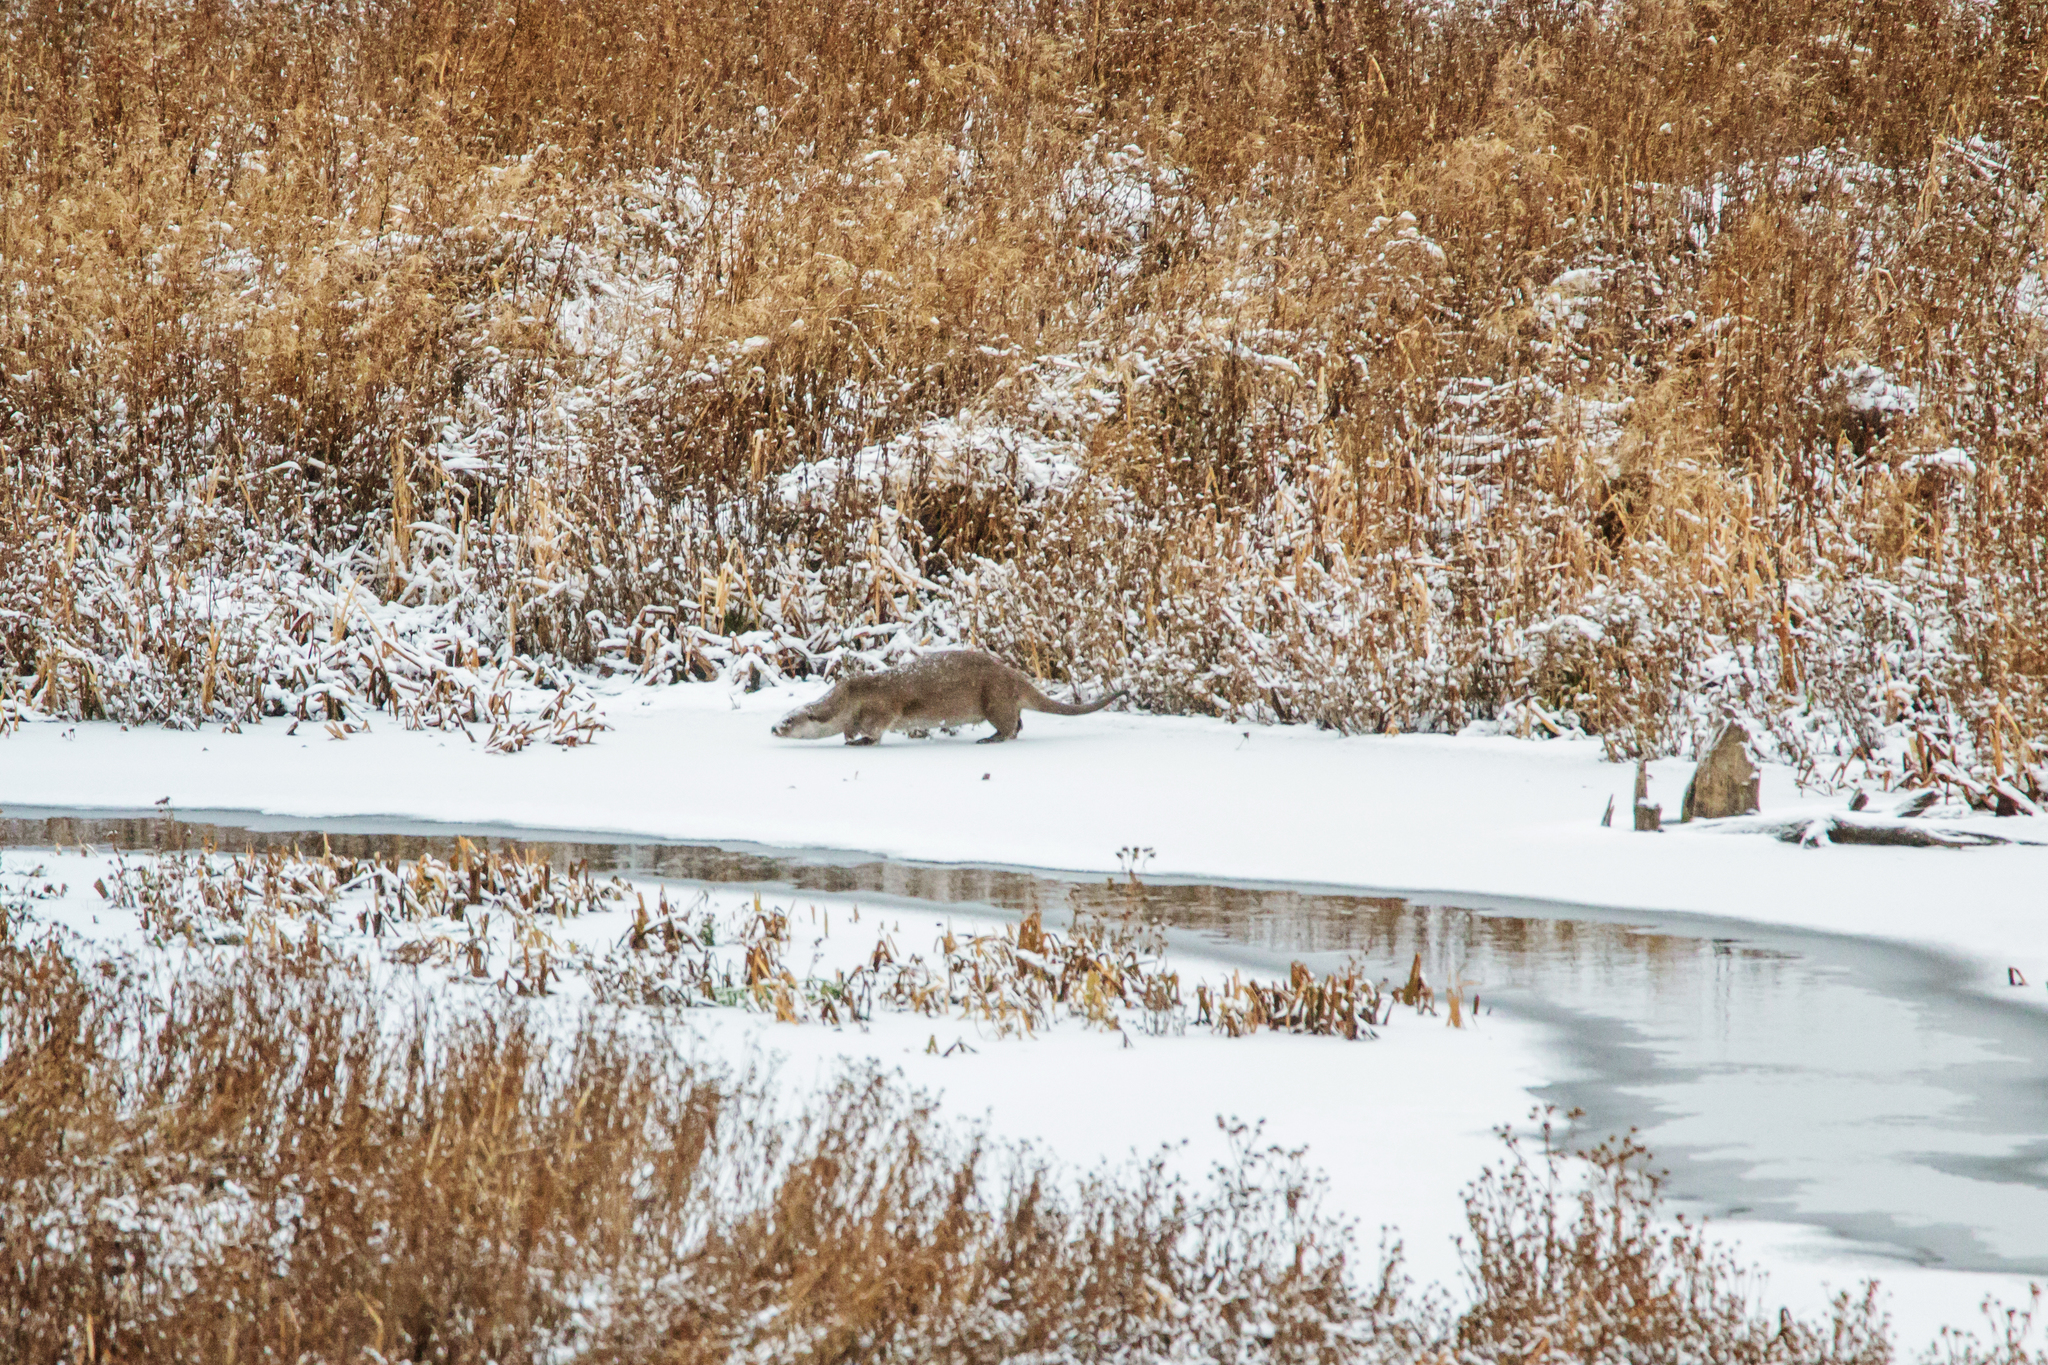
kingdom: Animalia
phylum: Chordata
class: Mammalia
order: Carnivora
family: Mustelidae
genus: Lutra
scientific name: Lutra lutra
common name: European otter
